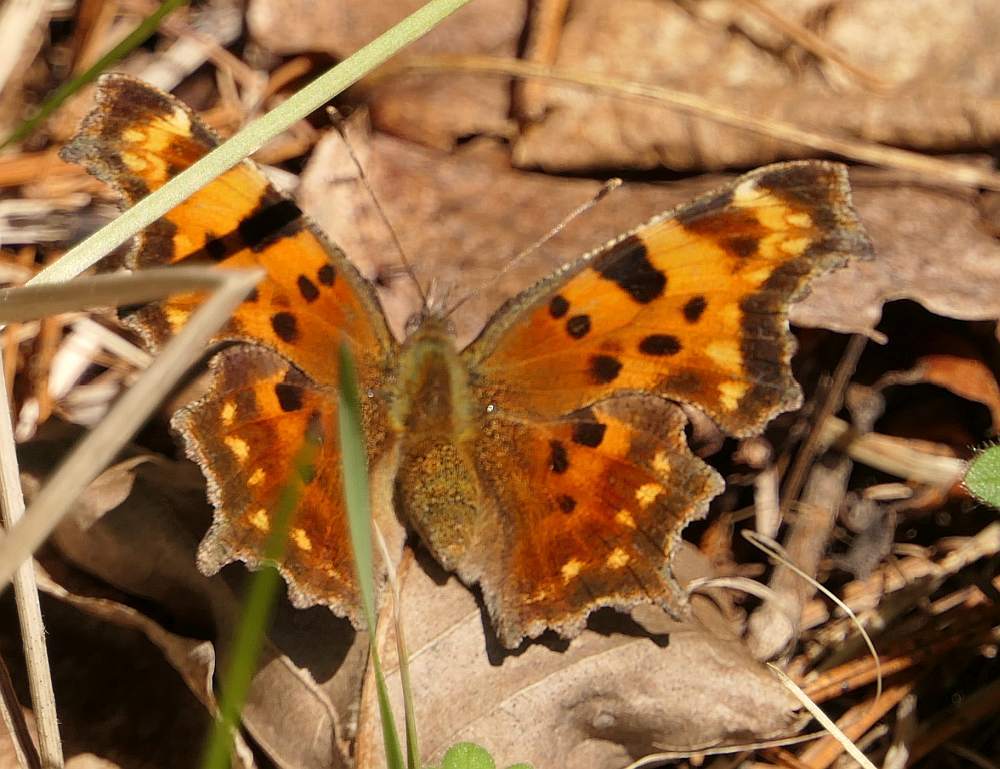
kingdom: Animalia
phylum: Arthropoda
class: Insecta
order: Lepidoptera
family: Nymphalidae
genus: Polygonia
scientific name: Polygonia faunus
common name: Green comma
